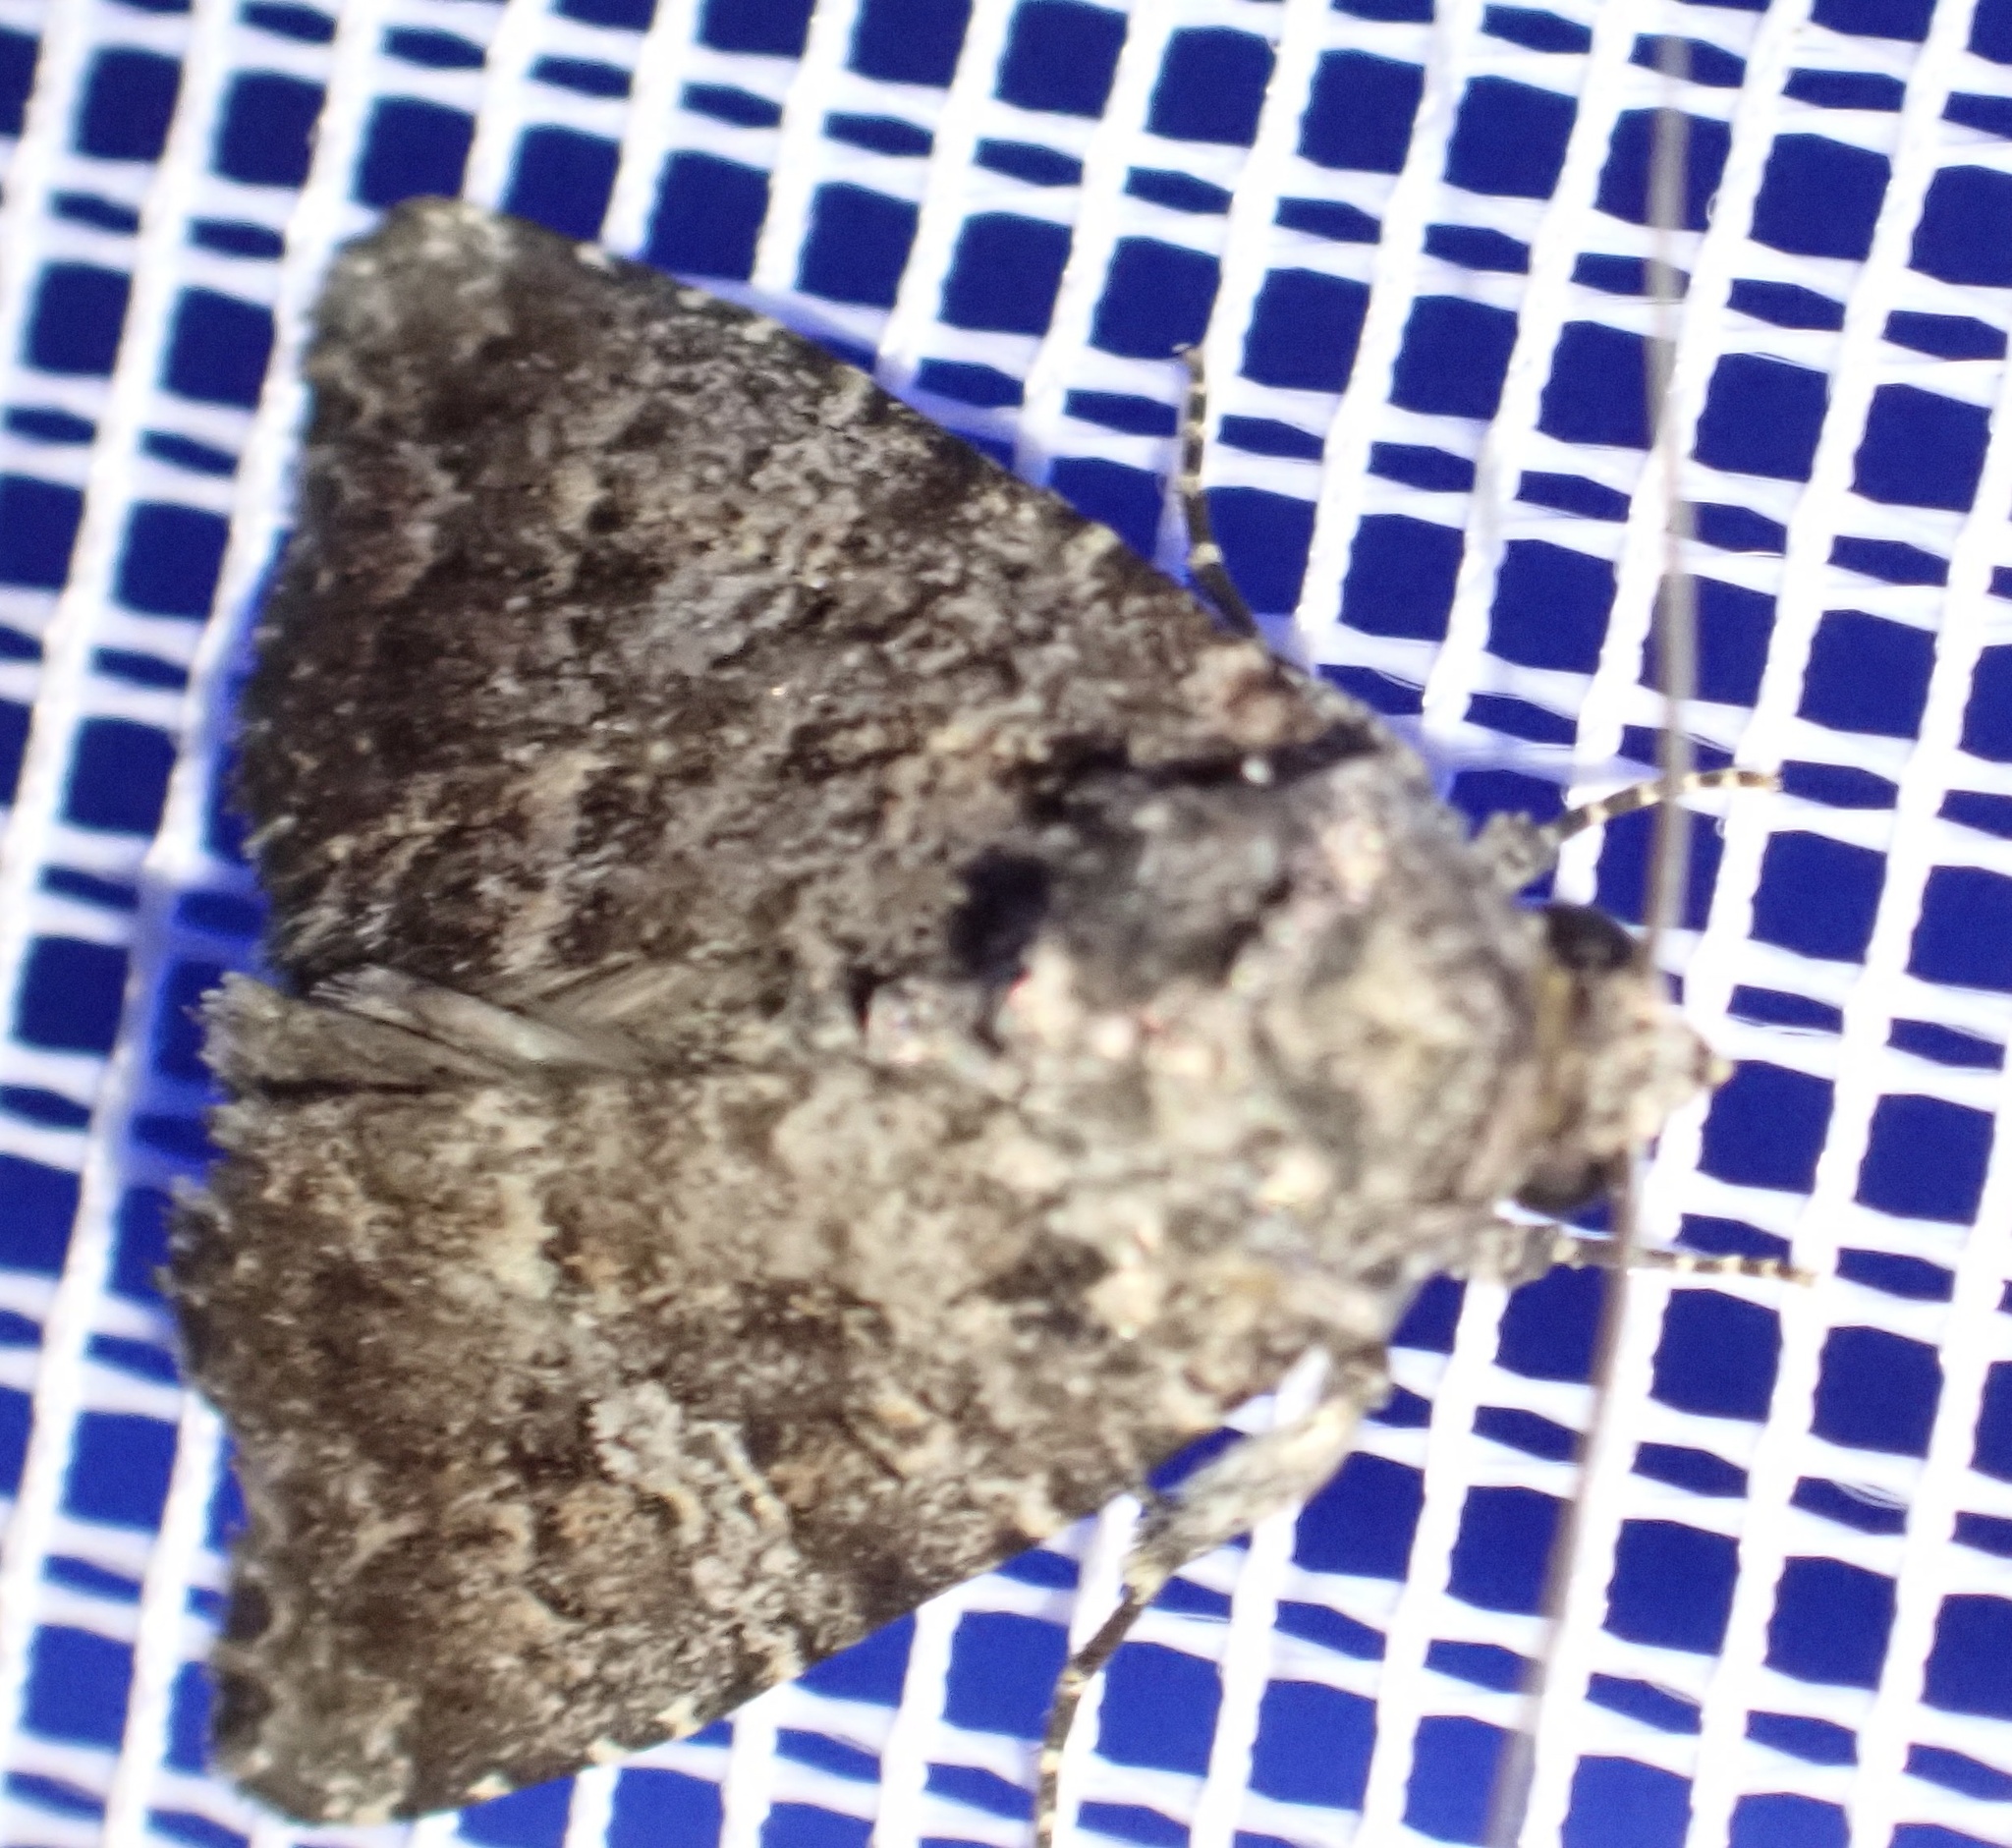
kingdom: Animalia
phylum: Arthropoda
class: Insecta
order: Lepidoptera
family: Noctuidae
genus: Condica
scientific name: Condica aroana
